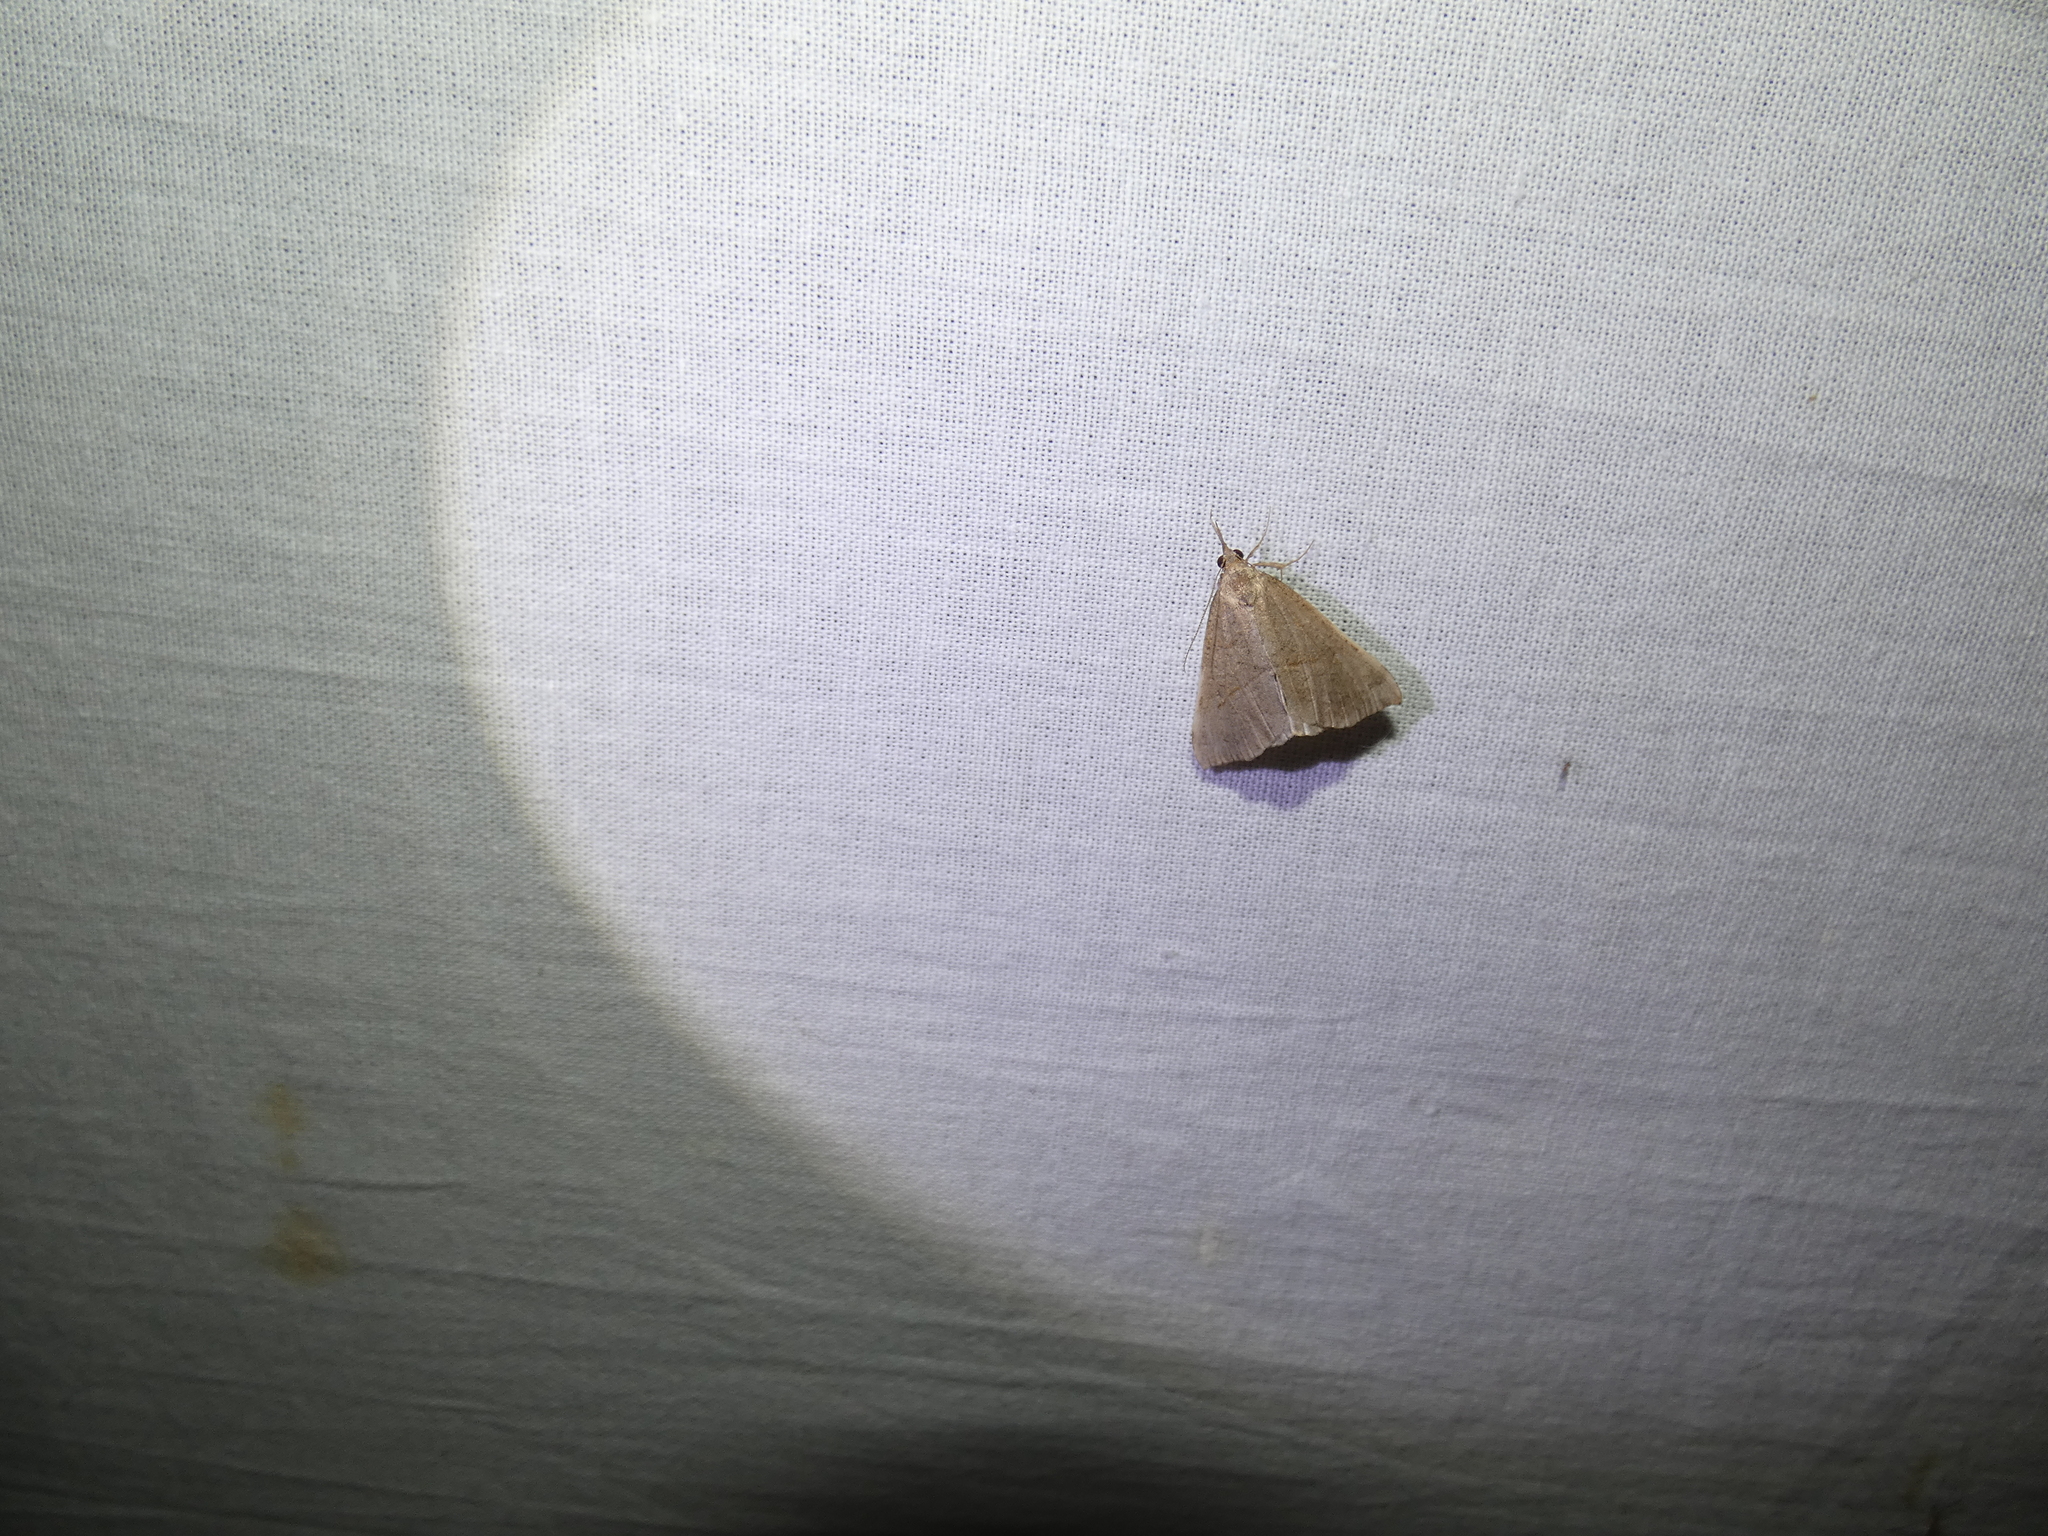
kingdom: Animalia
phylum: Arthropoda
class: Insecta
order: Lepidoptera
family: Erebidae
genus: Hypena
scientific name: Hypena proboscidalis
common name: Snout
